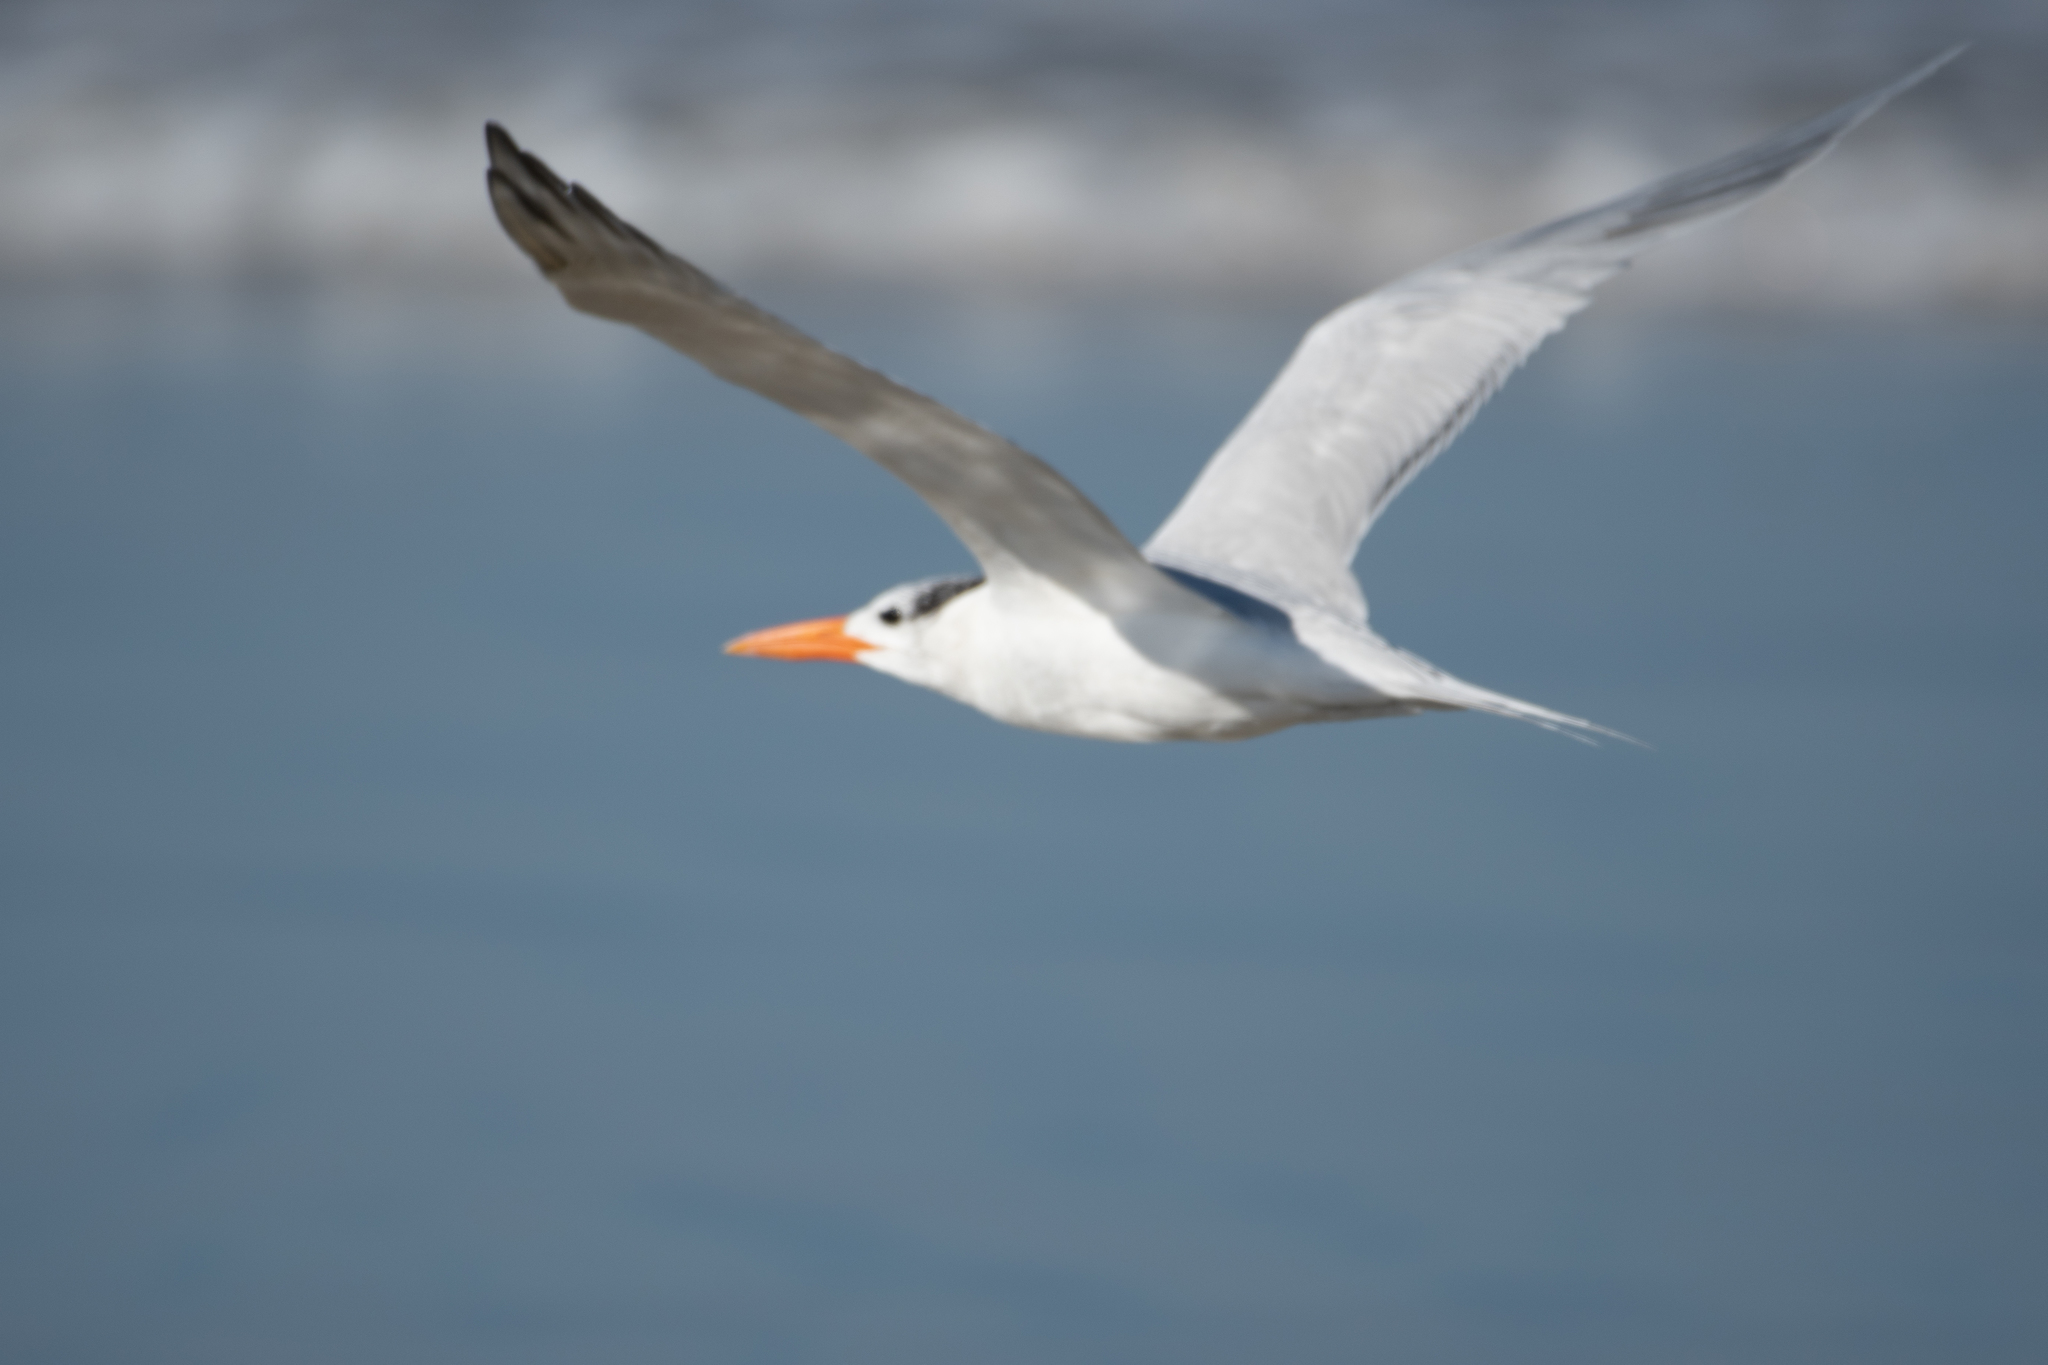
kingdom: Animalia
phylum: Chordata
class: Aves
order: Charadriiformes
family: Laridae
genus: Thalasseus
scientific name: Thalasseus maximus
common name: Royal tern
